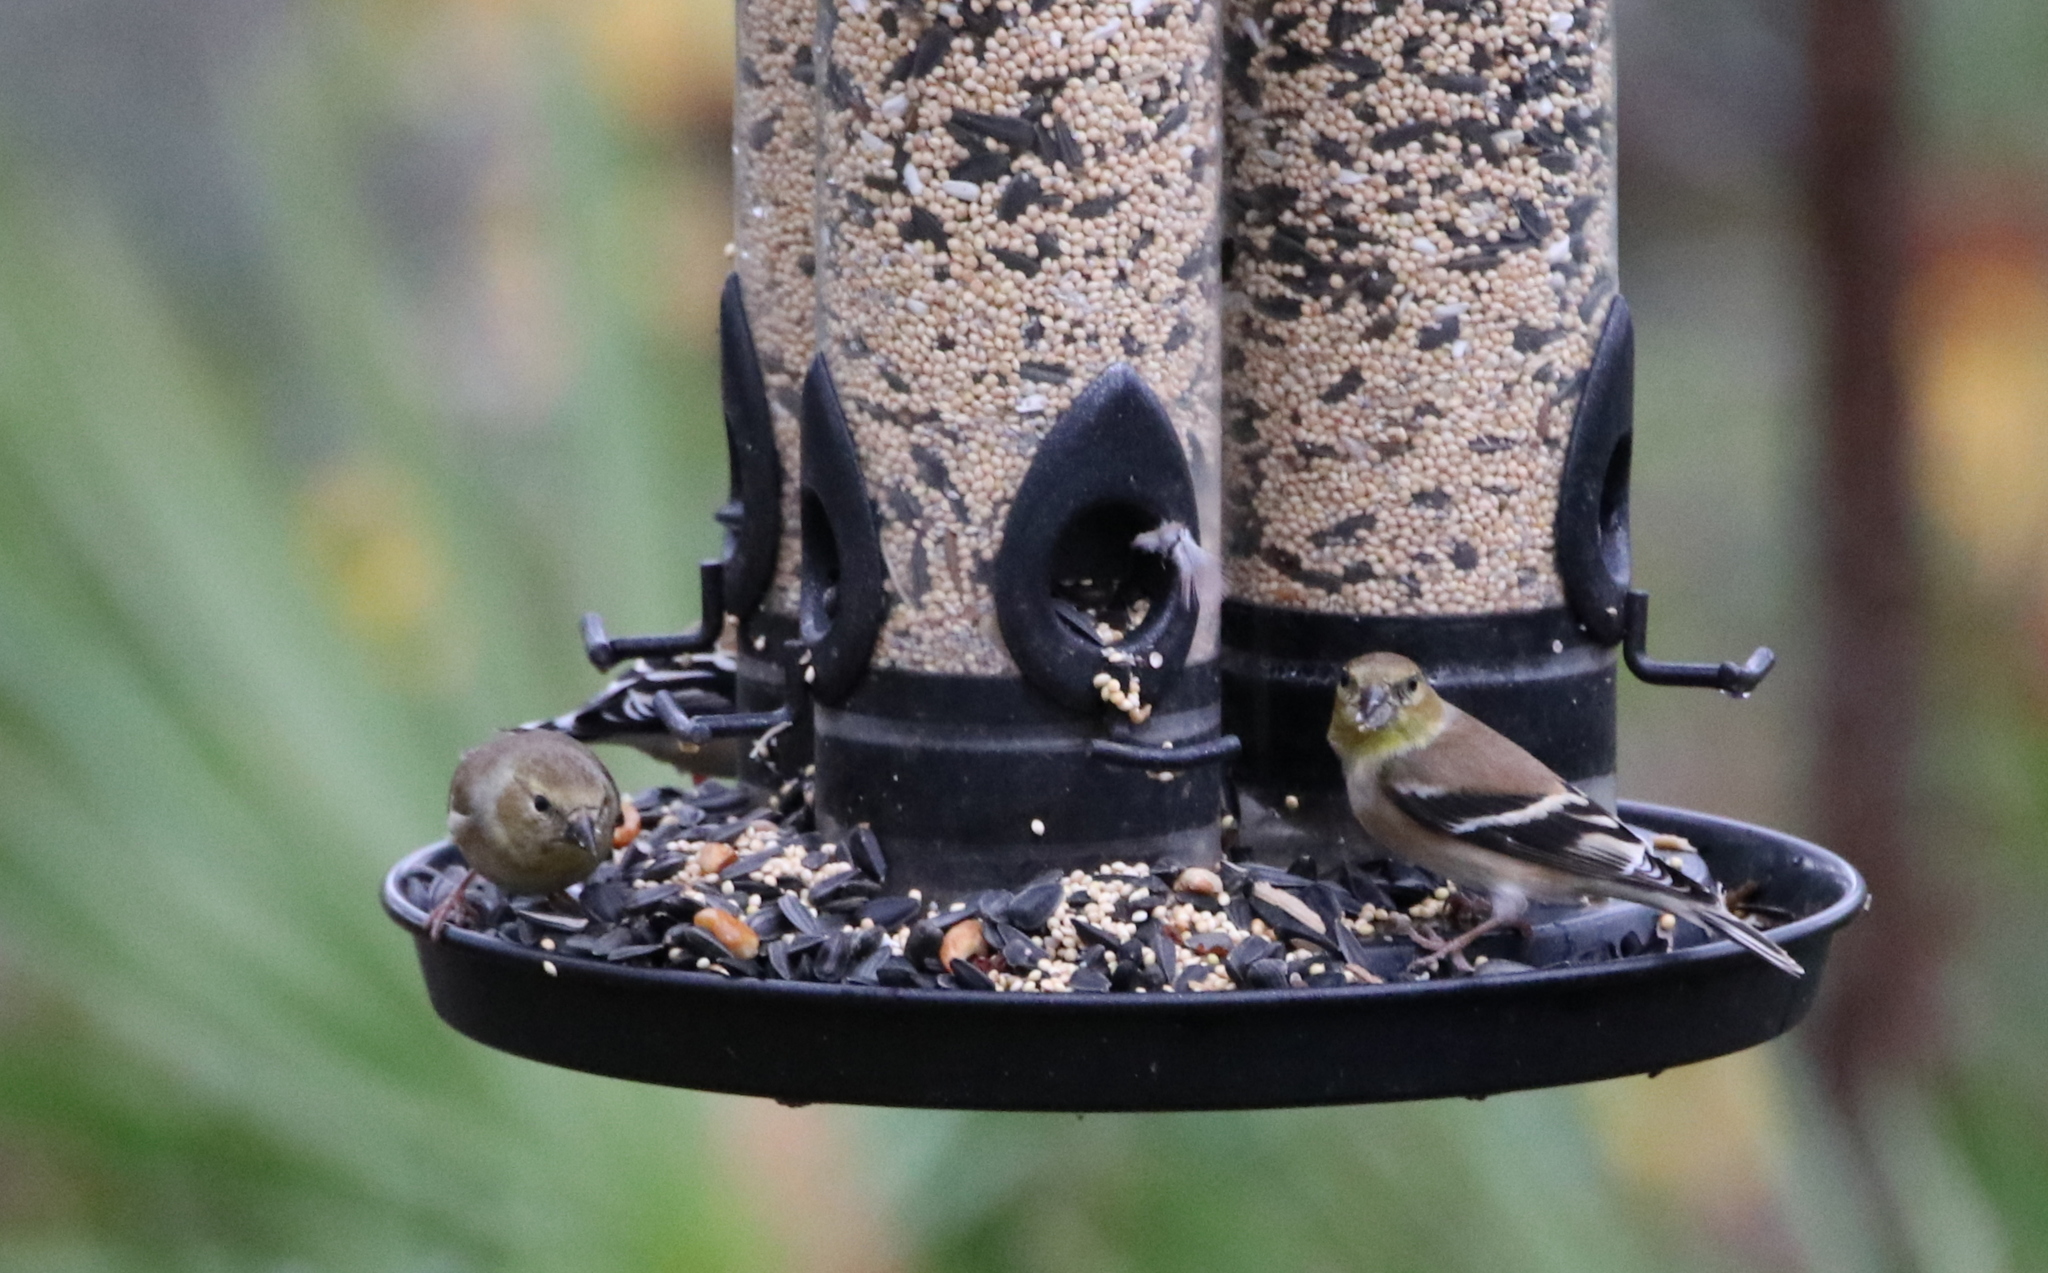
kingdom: Animalia
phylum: Chordata
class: Aves
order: Passeriformes
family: Fringillidae
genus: Spinus
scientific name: Spinus tristis
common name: American goldfinch
